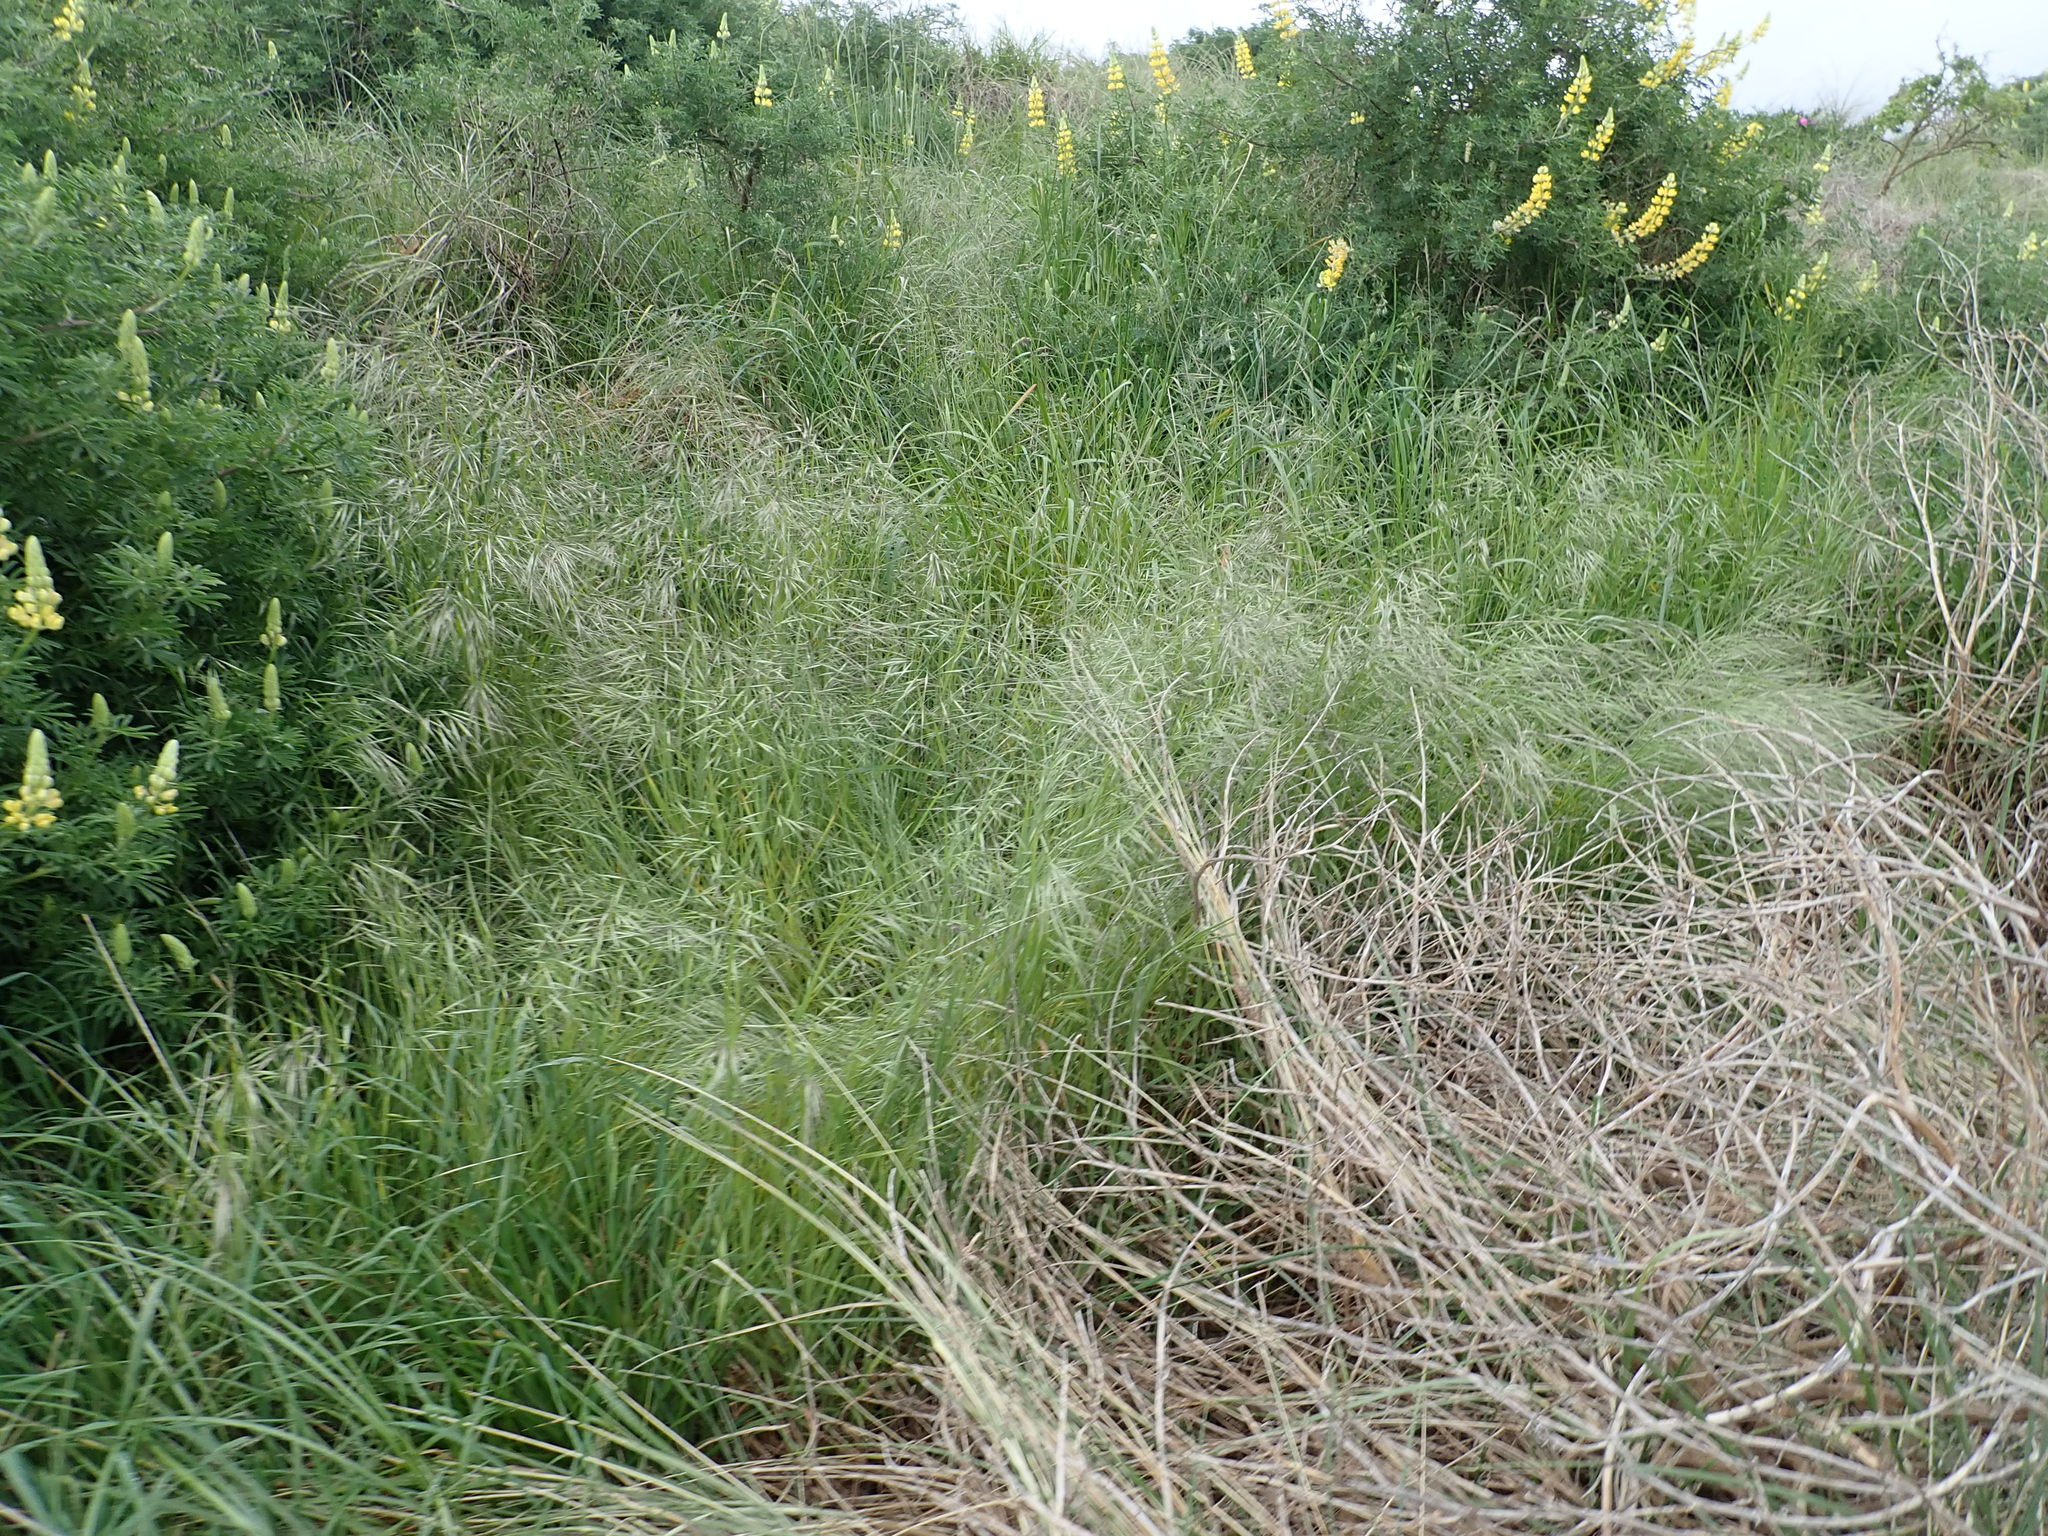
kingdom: Plantae
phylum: Tracheophyta
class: Liliopsida
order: Poales
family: Poaceae
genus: Bromus
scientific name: Bromus diandrus
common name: Ripgut brome
